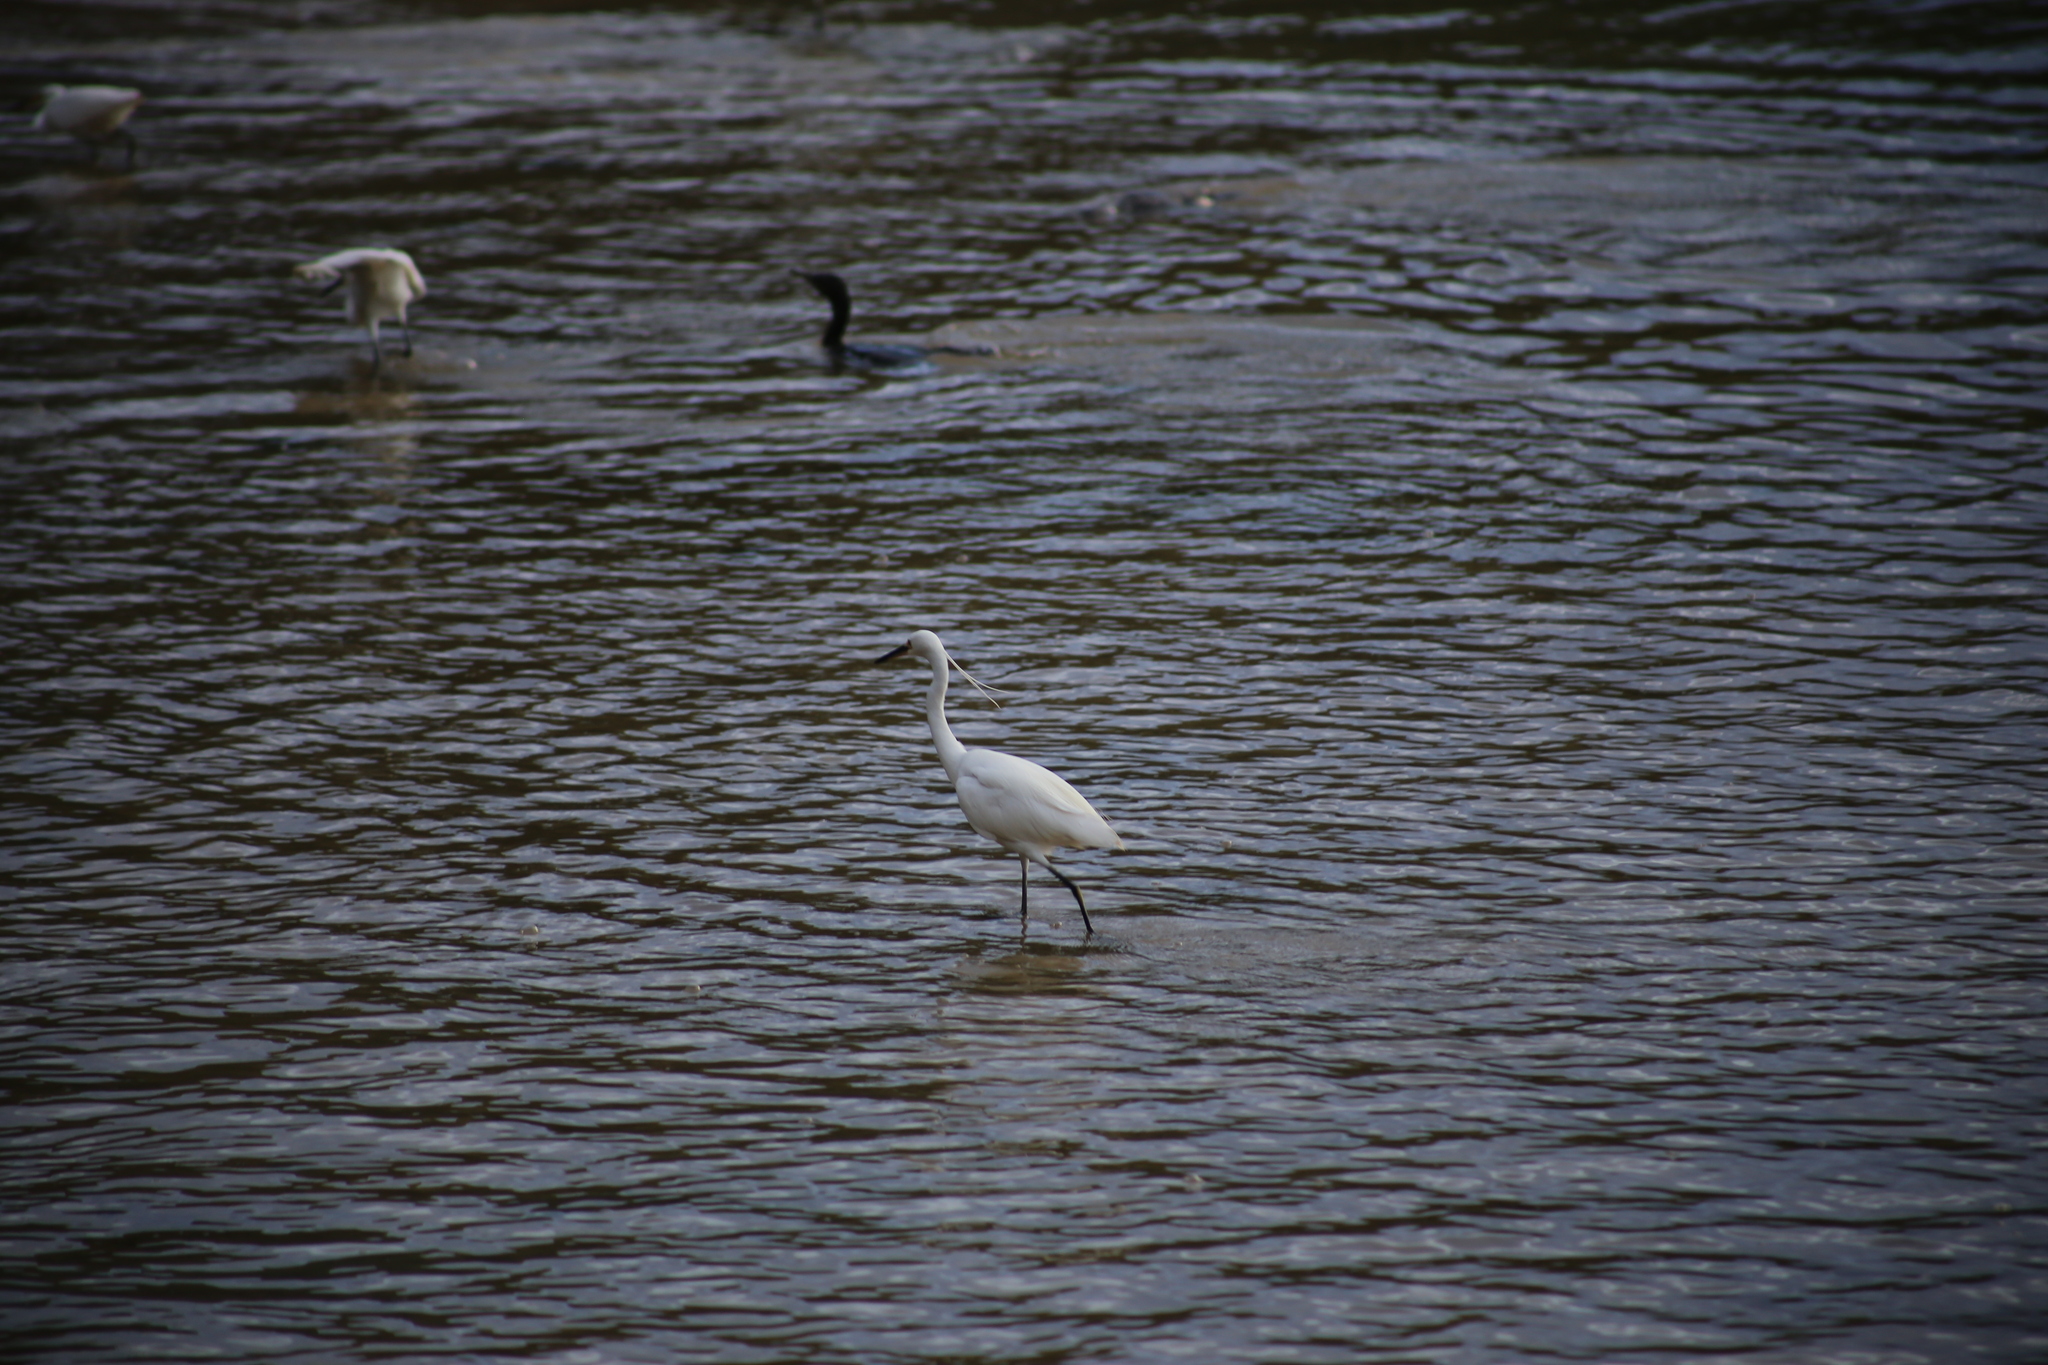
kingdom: Animalia
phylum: Chordata
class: Aves
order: Pelecaniformes
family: Ardeidae
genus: Egretta
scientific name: Egretta garzetta
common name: Little egret
